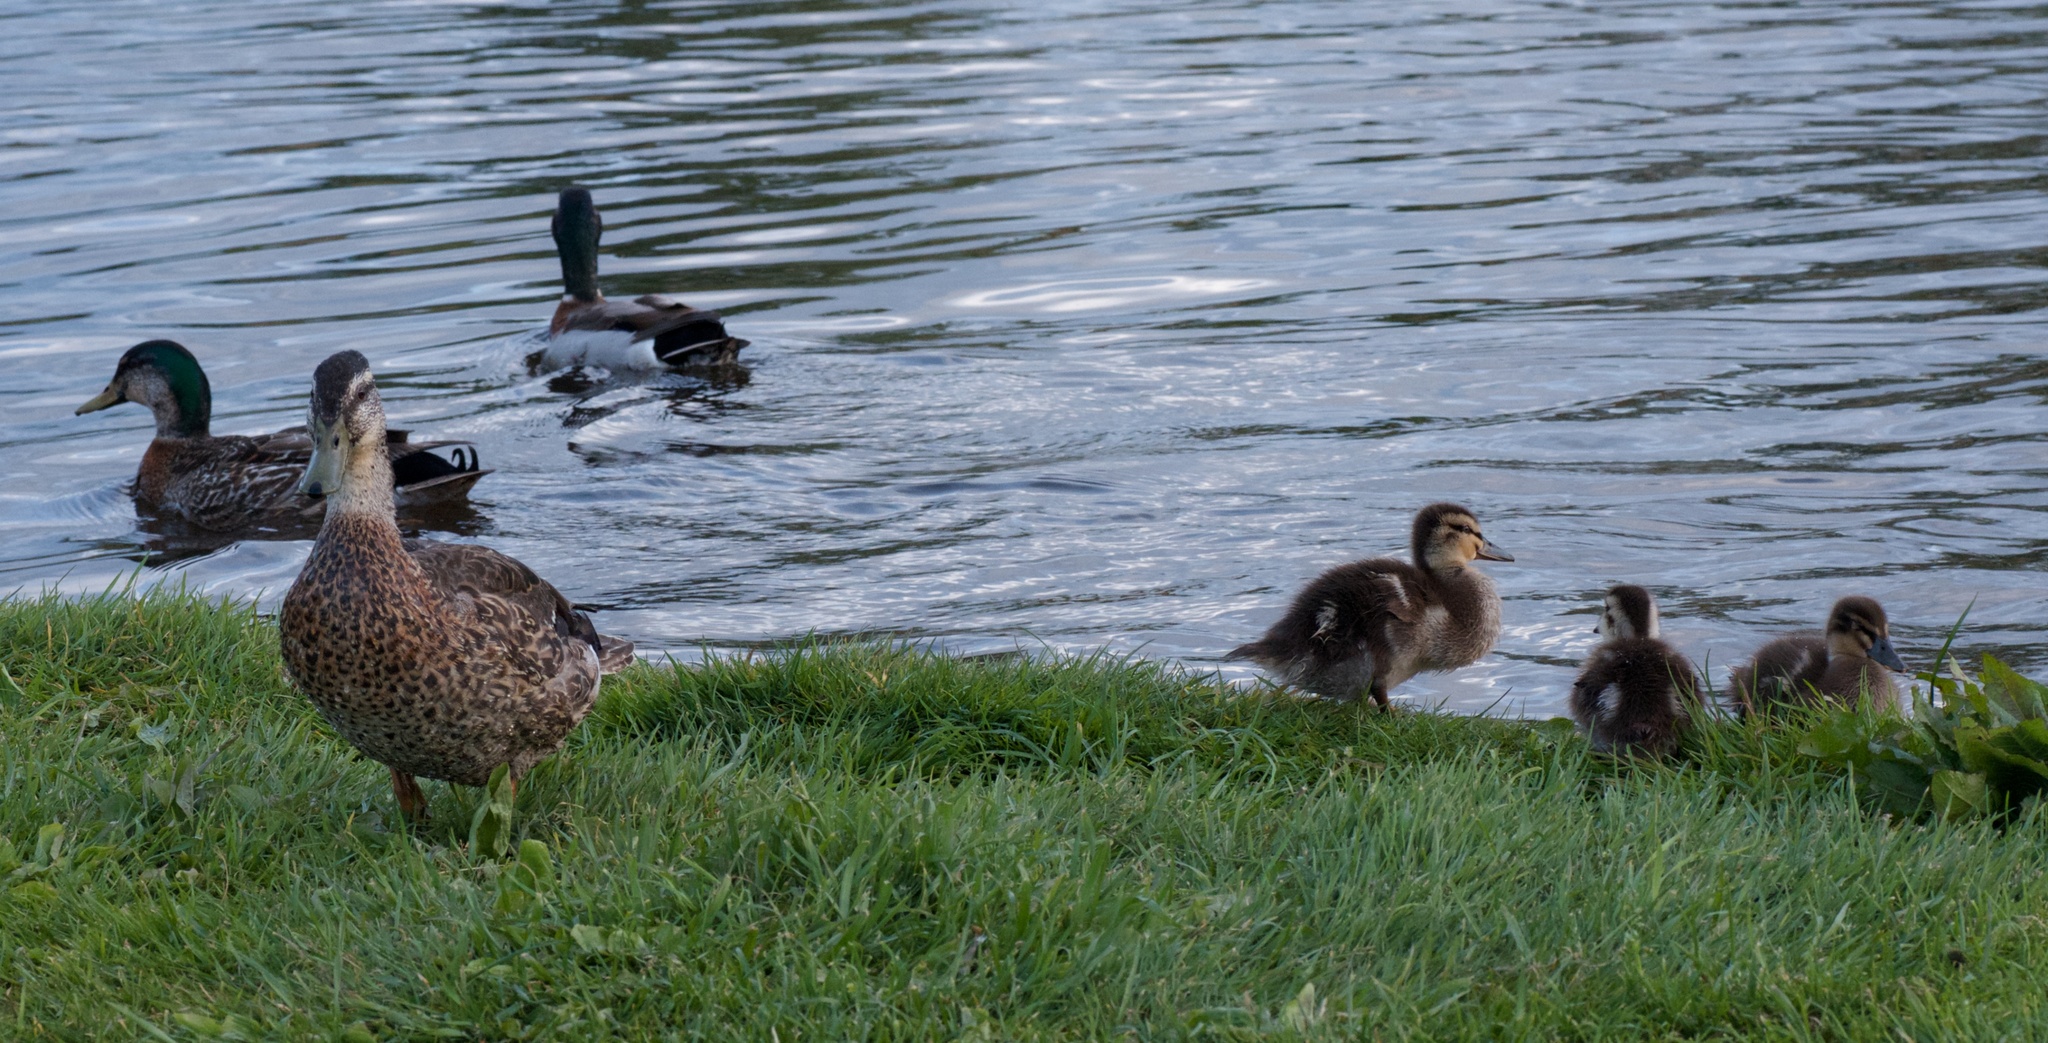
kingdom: Animalia
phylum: Chordata
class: Aves
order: Anseriformes
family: Anatidae
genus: Anas
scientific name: Anas platyrhynchos
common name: Mallard
